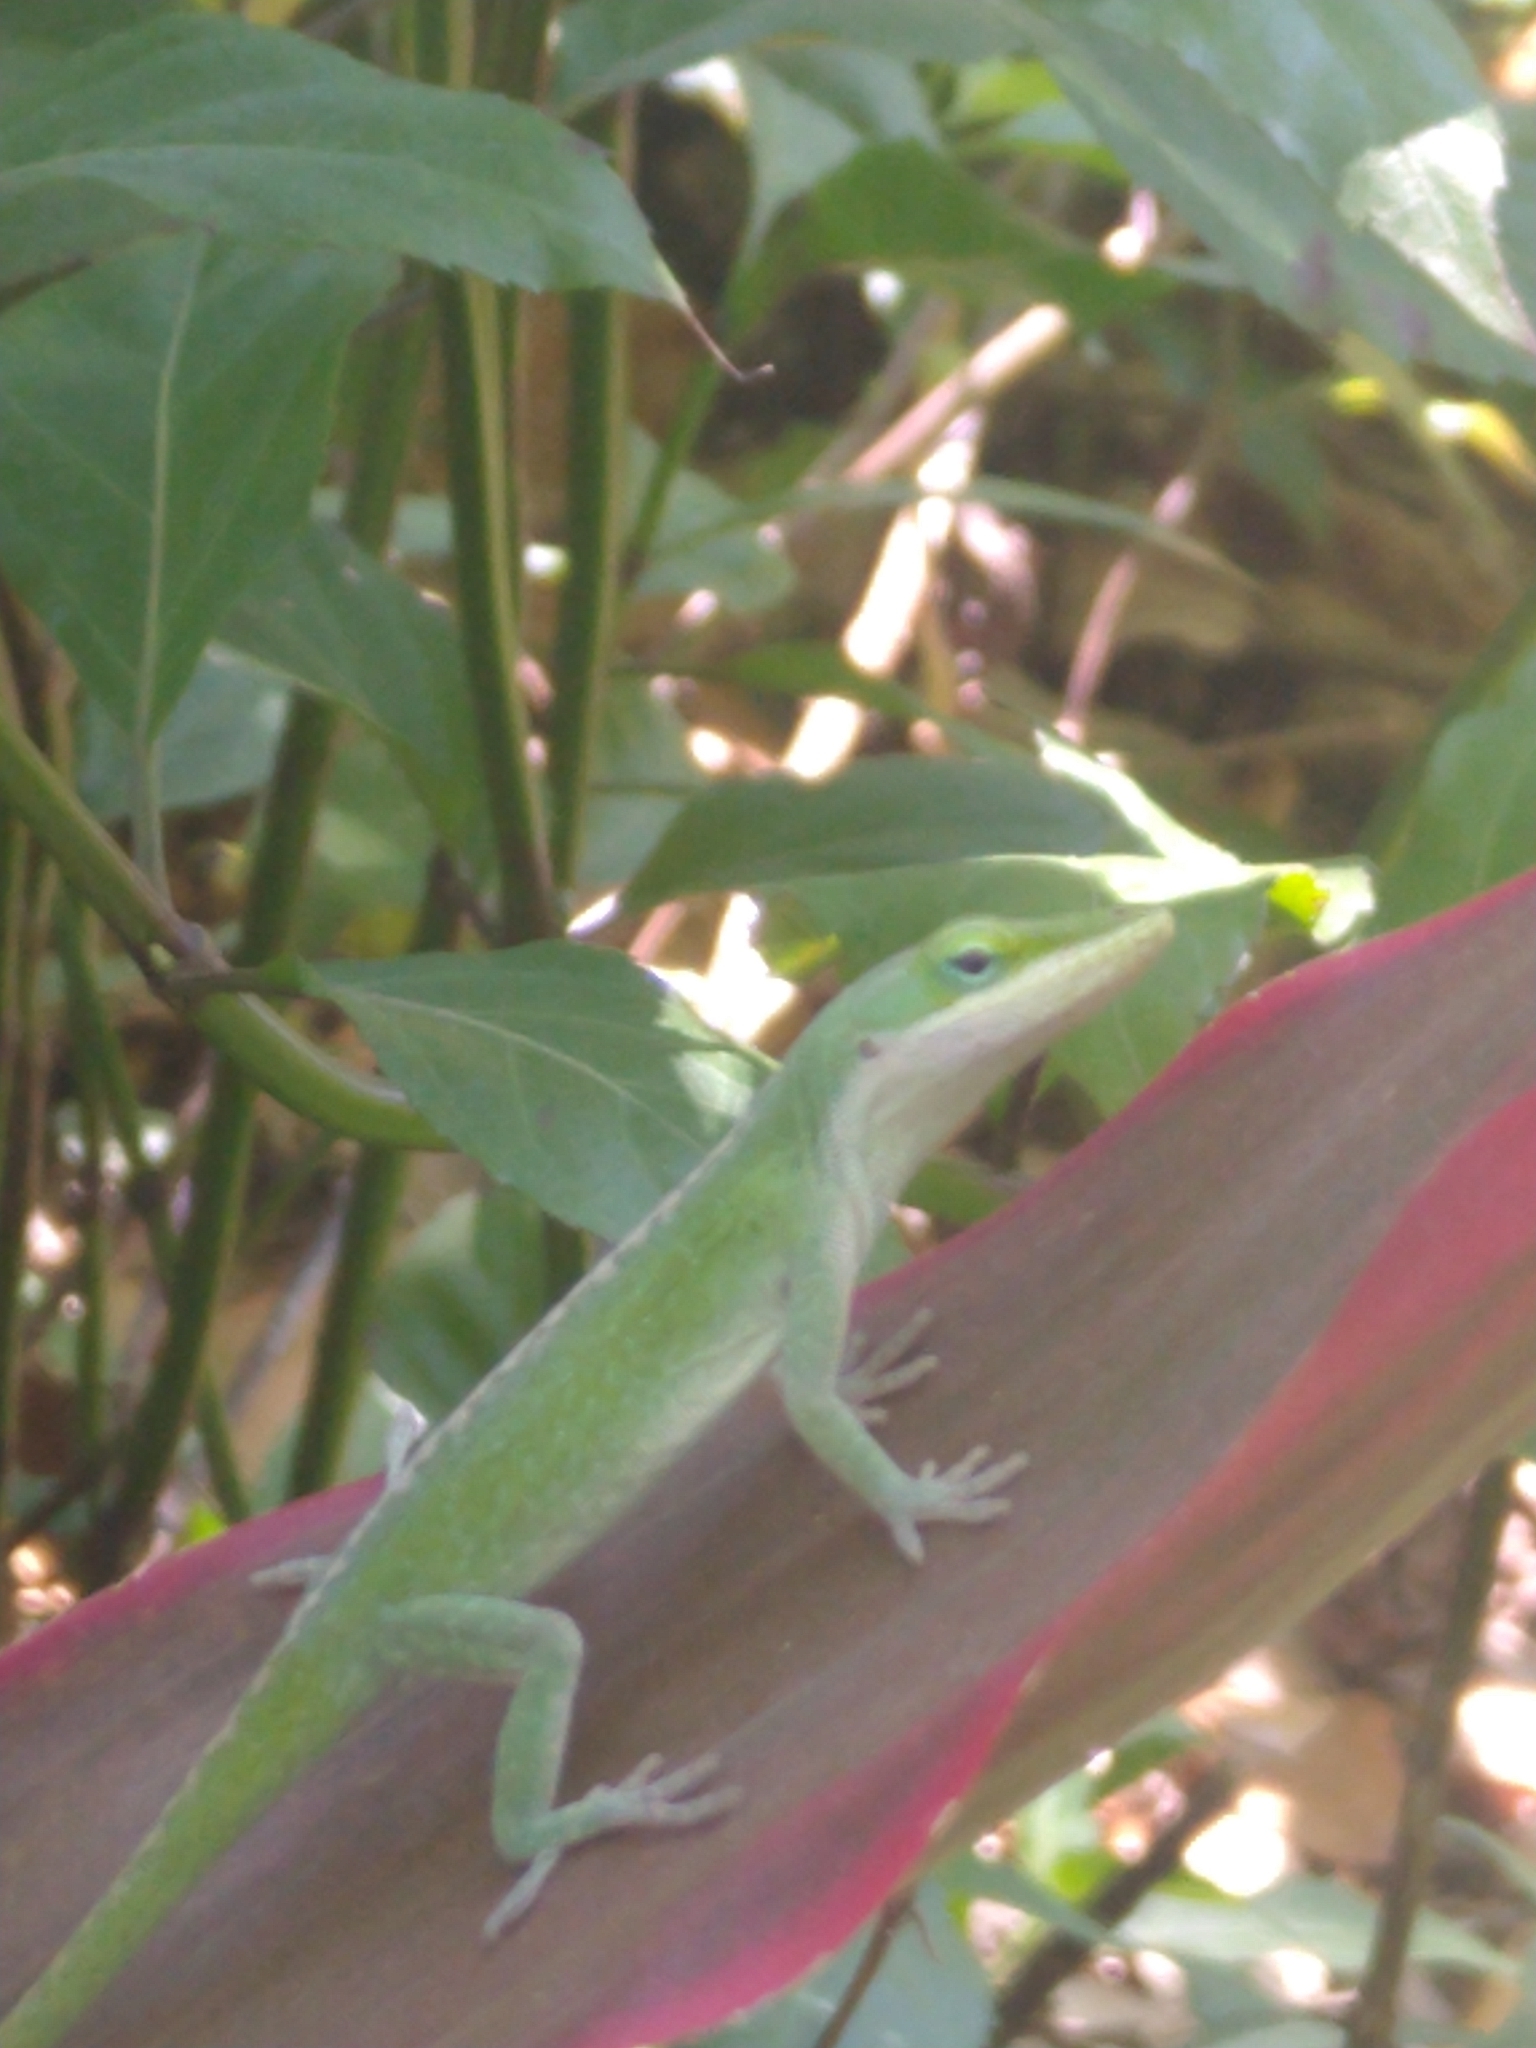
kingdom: Animalia
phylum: Chordata
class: Squamata
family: Dactyloidae
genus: Anolis
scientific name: Anolis carolinensis
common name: Green anole
